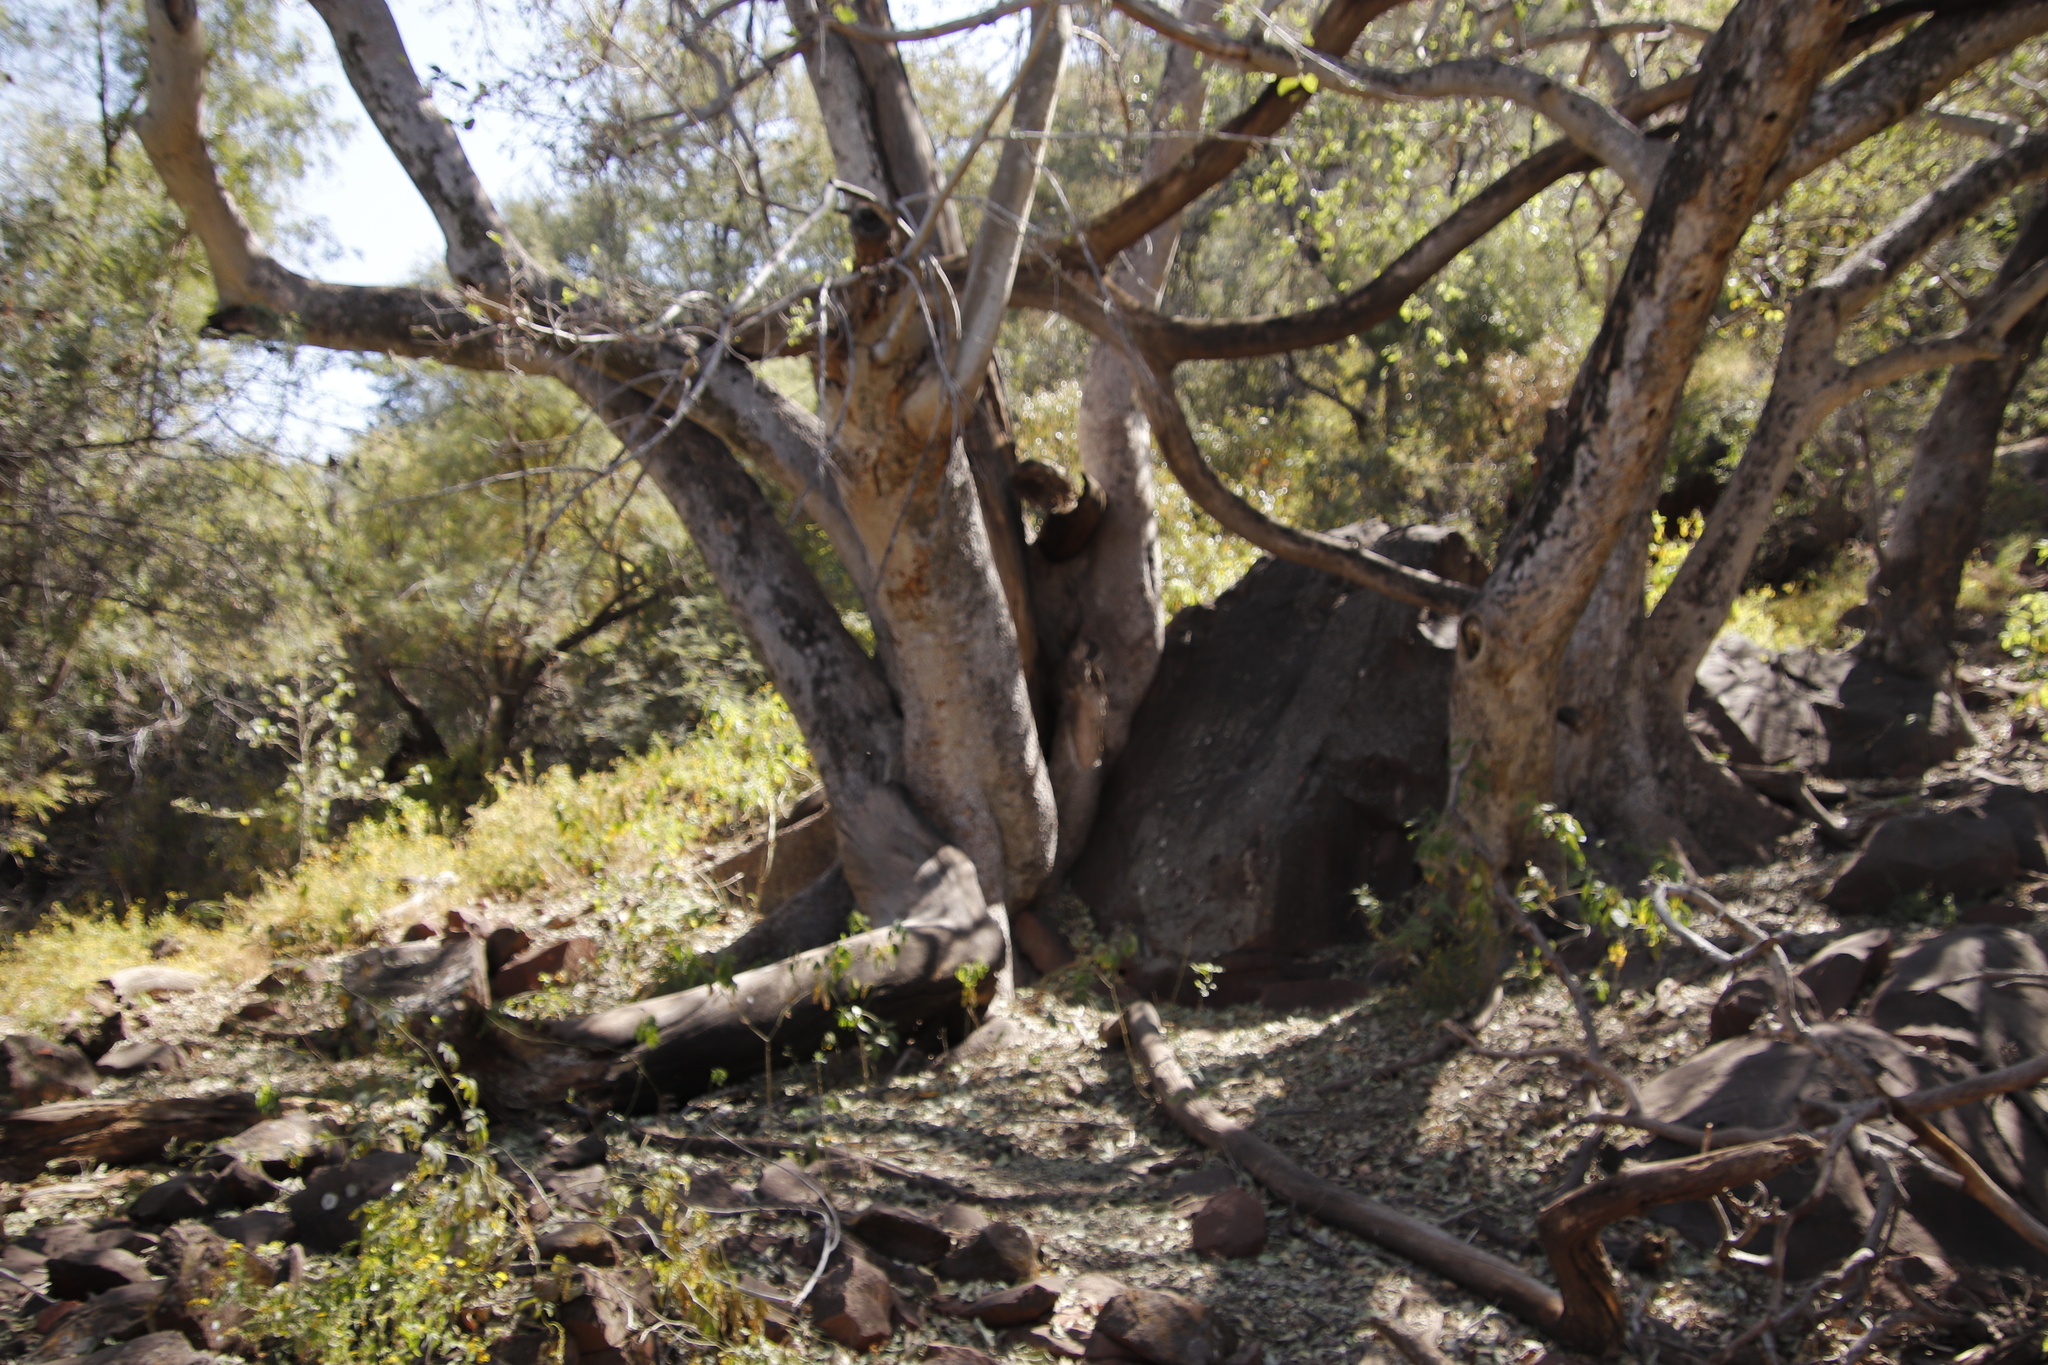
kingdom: Plantae
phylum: Tracheophyta
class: Magnoliopsida
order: Rosales
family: Moraceae
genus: Ficus
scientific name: Ficus sycomorus
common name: Sycomore
